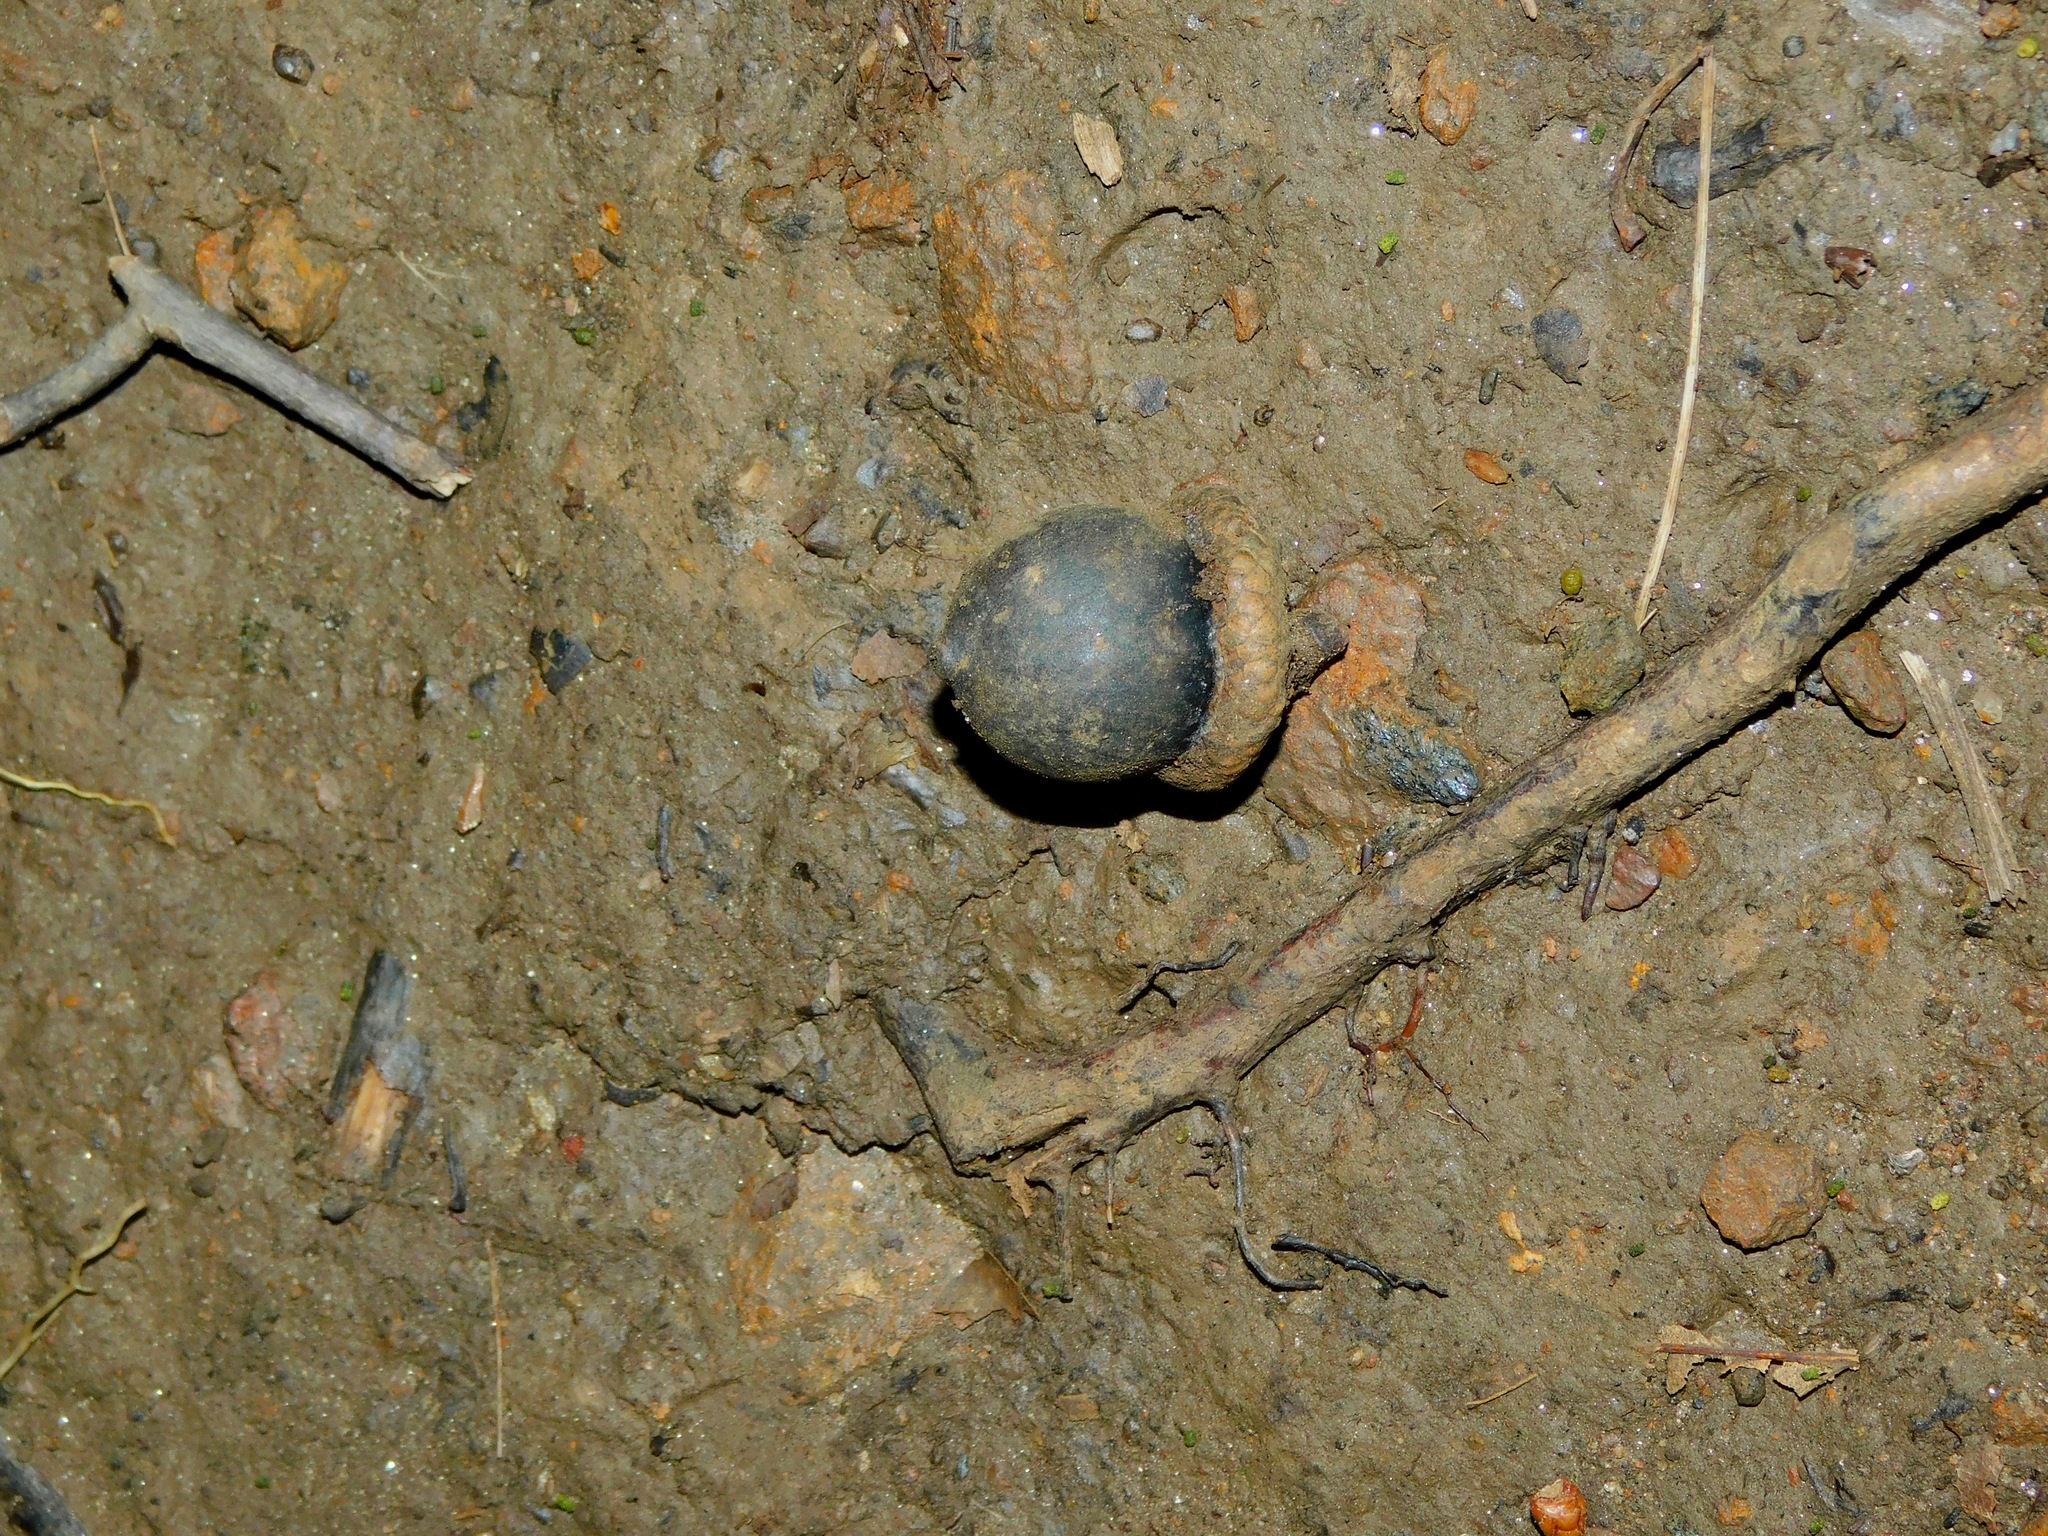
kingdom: Plantae
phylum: Tracheophyta
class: Magnoliopsida
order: Fagales
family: Fagaceae
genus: Quercus
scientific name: Quercus rubra
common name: Red oak
